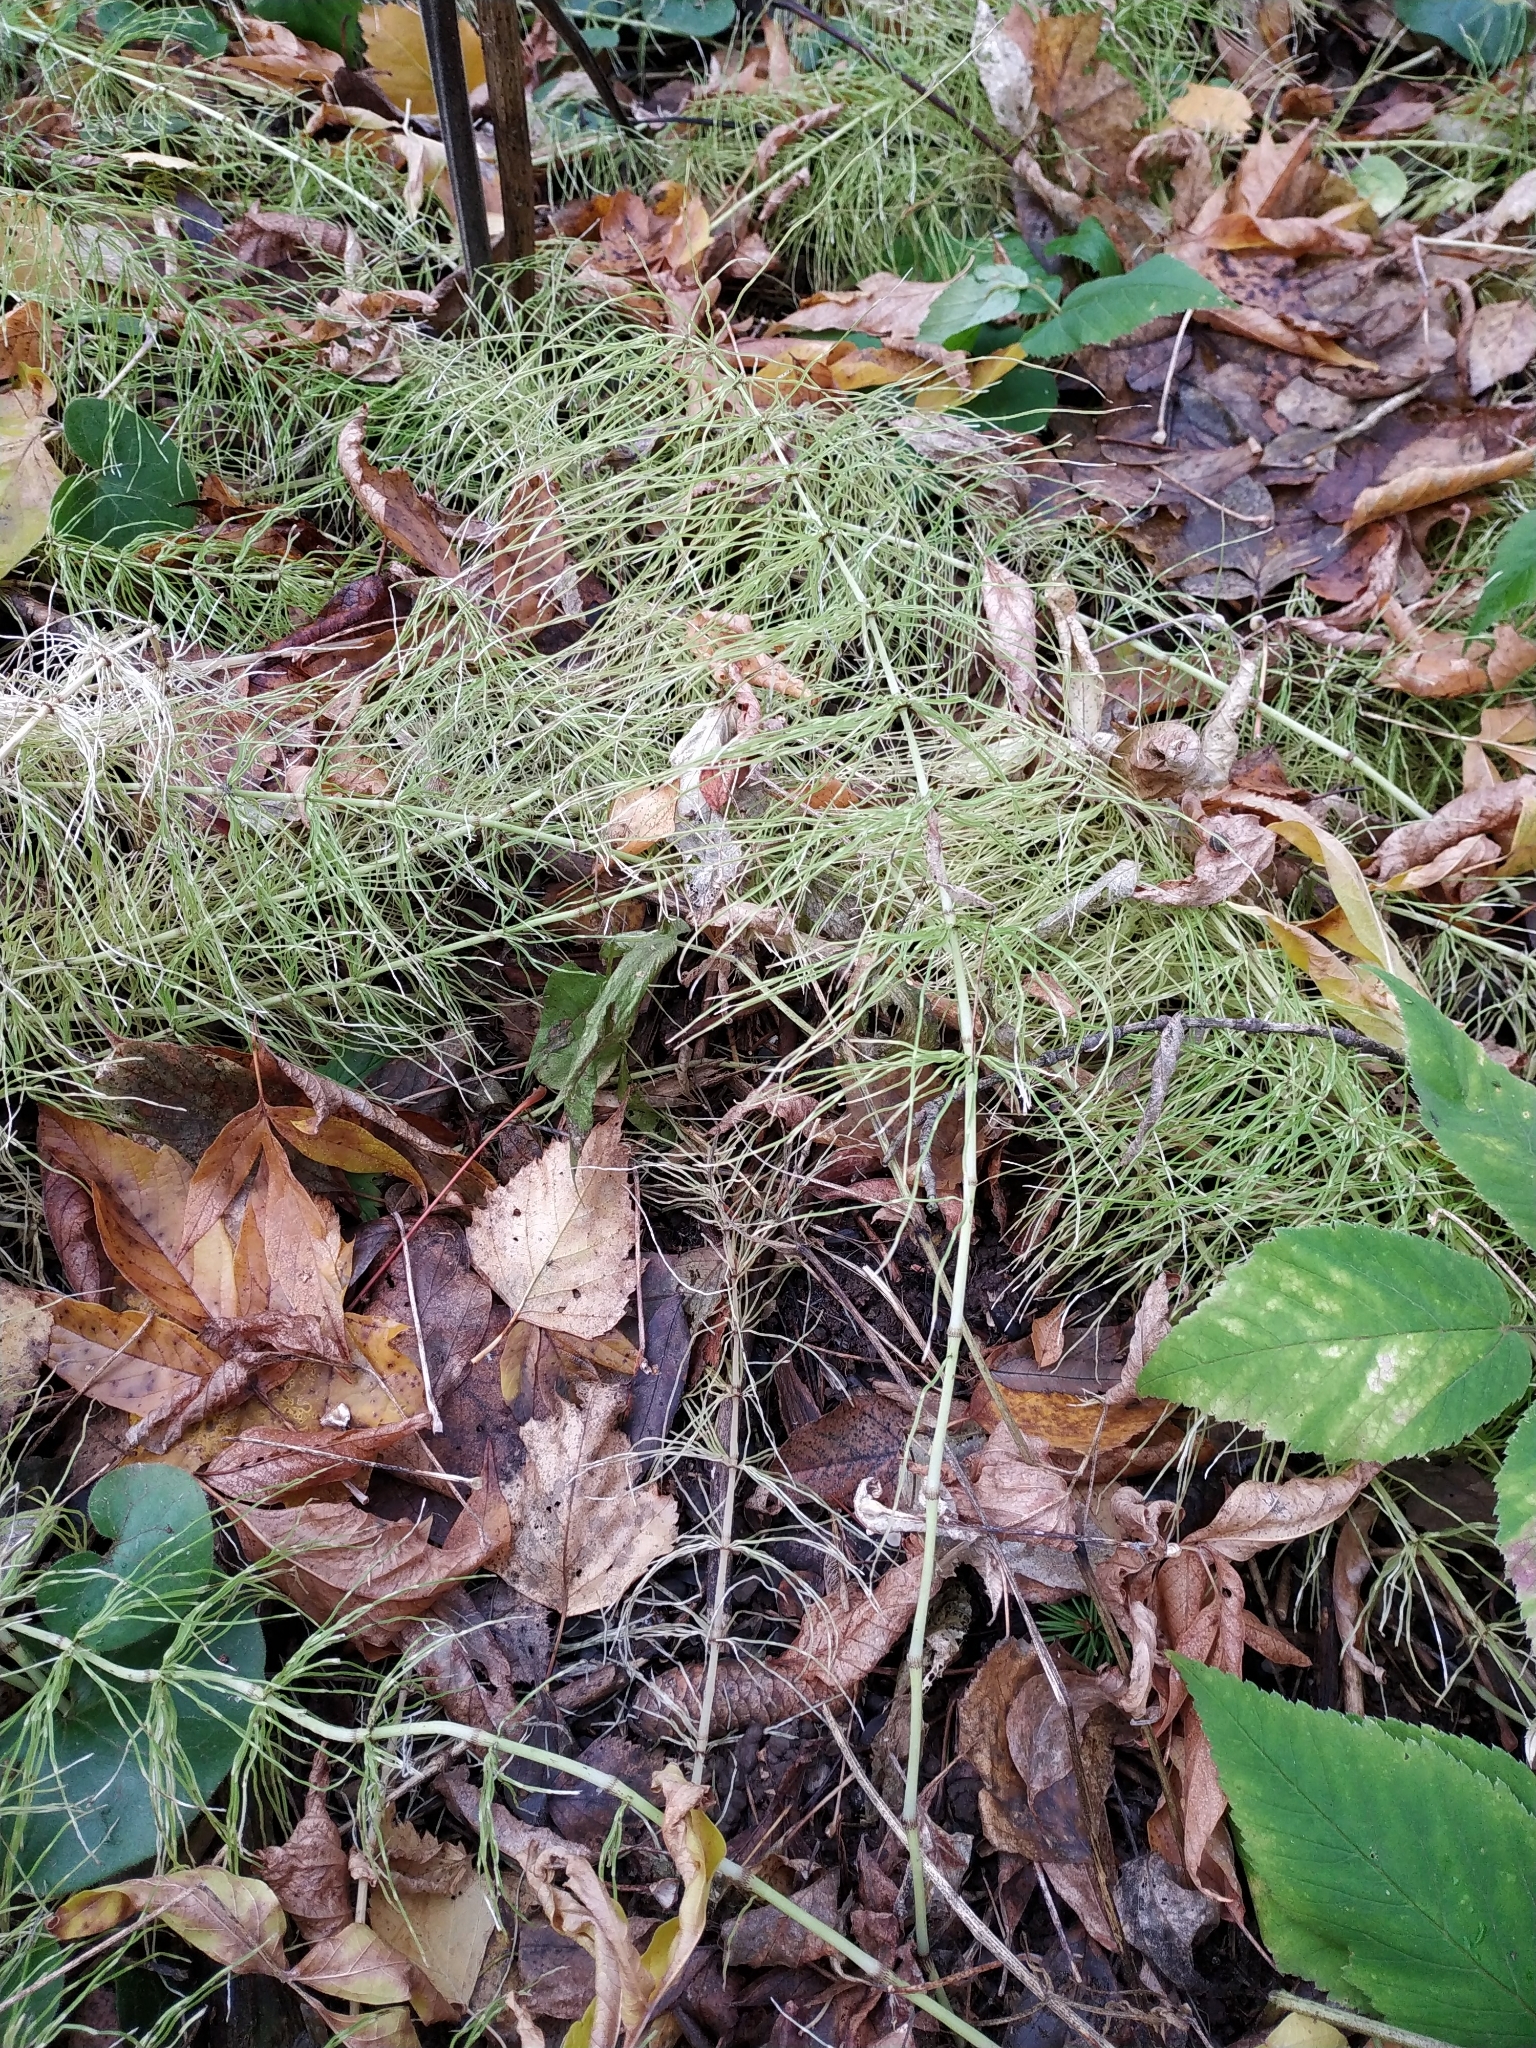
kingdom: Plantae
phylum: Tracheophyta
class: Polypodiopsida
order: Equisetales
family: Equisetaceae
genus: Equisetum
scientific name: Equisetum pratense
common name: Meadow horsetail
